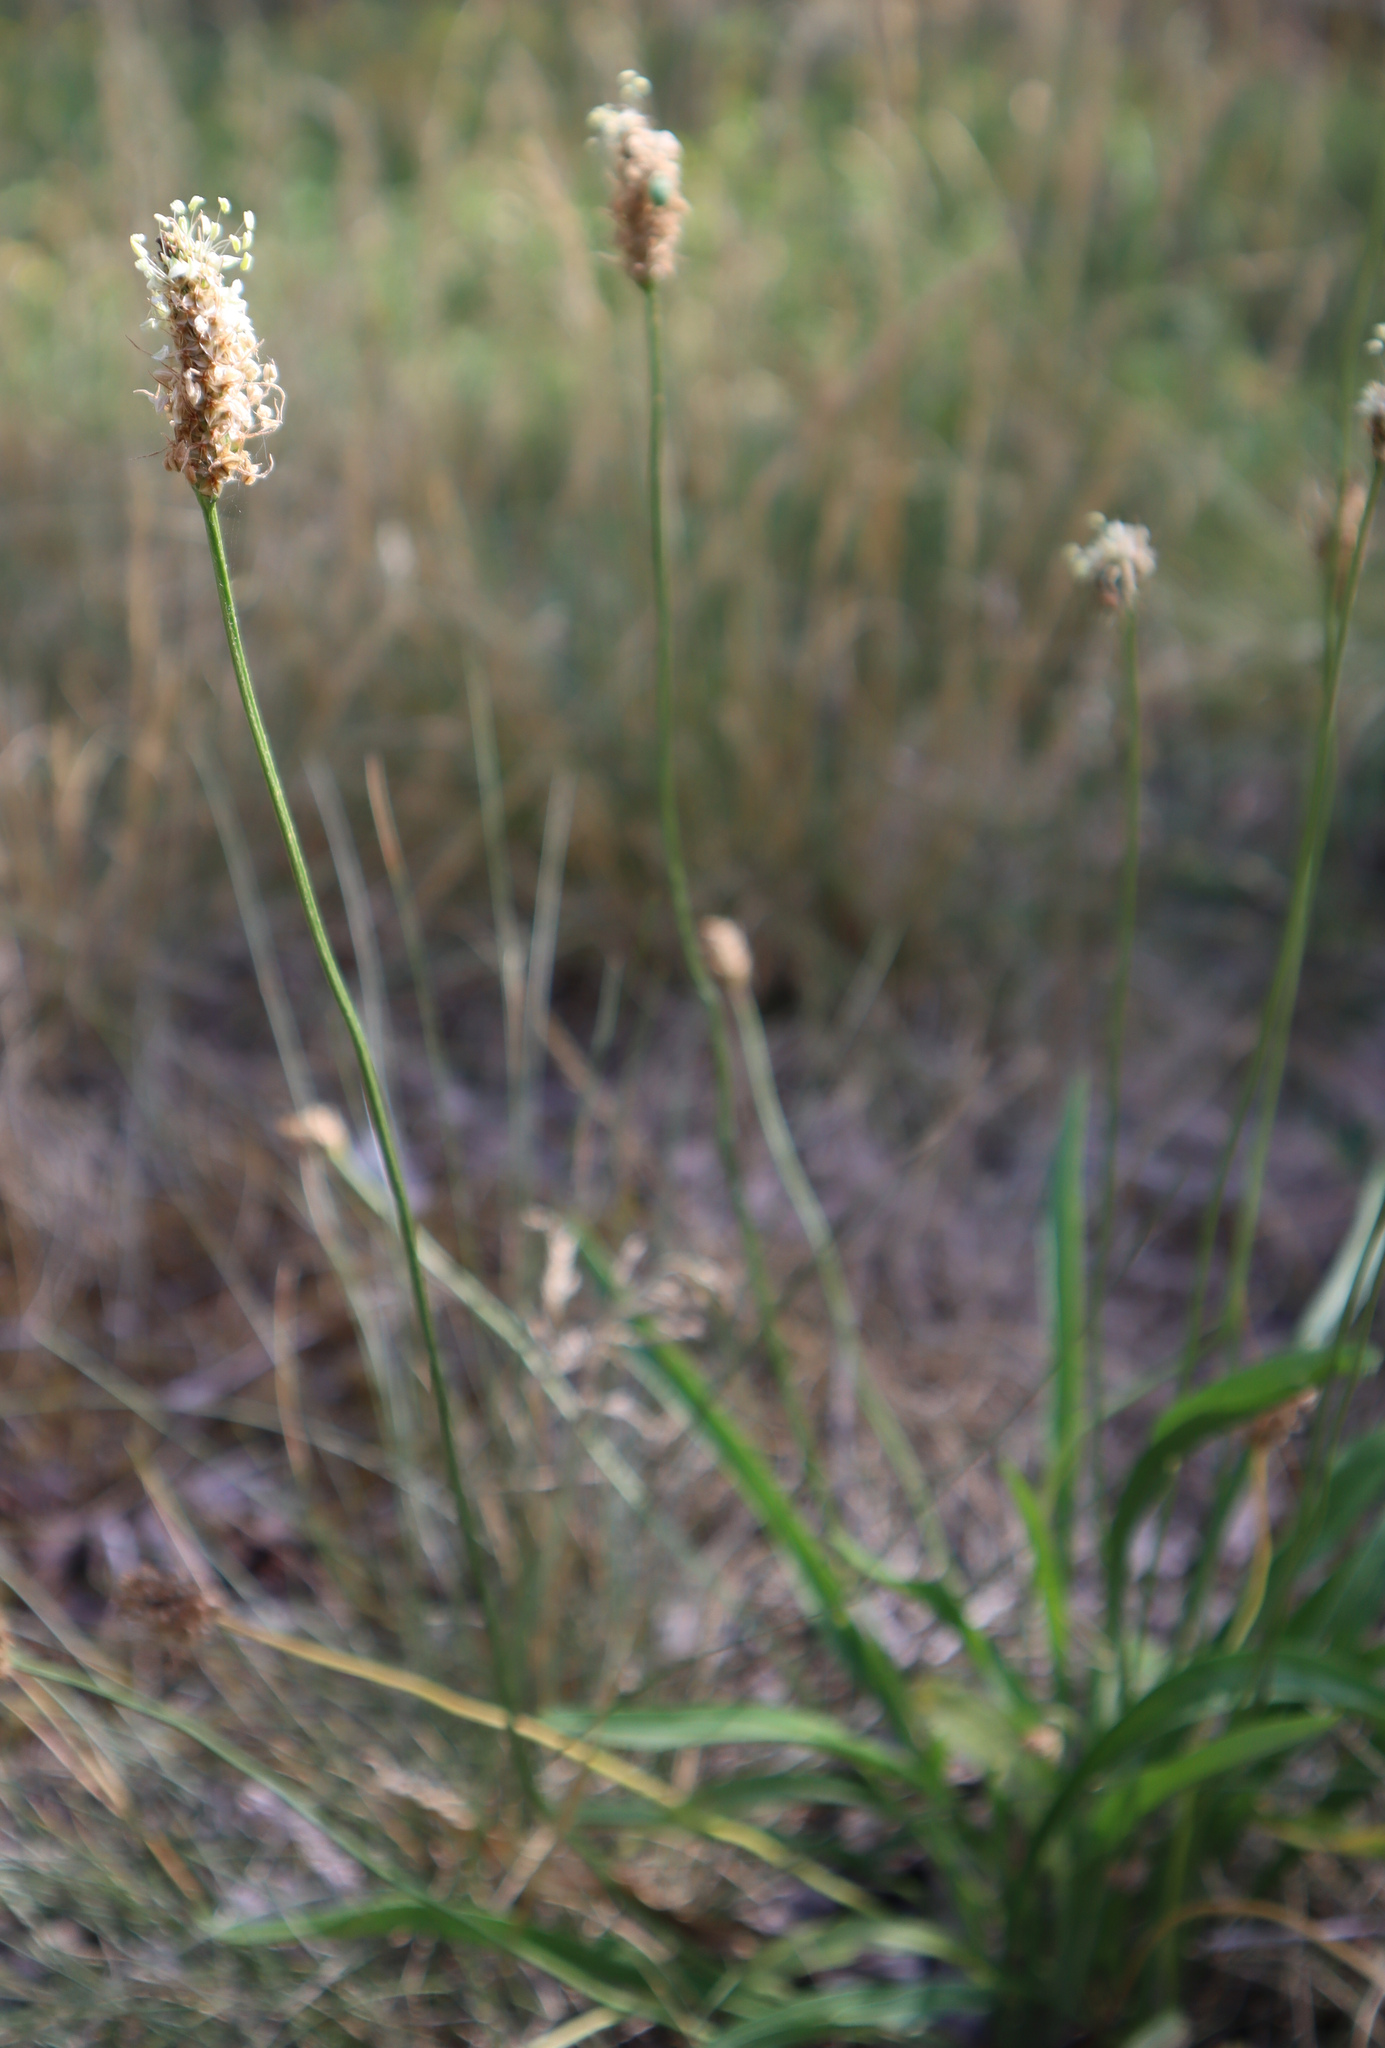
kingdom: Plantae
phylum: Tracheophyta
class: Magnoliopsida
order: Lamiales
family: Plantaginaceae
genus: Plantago
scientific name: Plantago lanceolata
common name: Ribwort plantain
